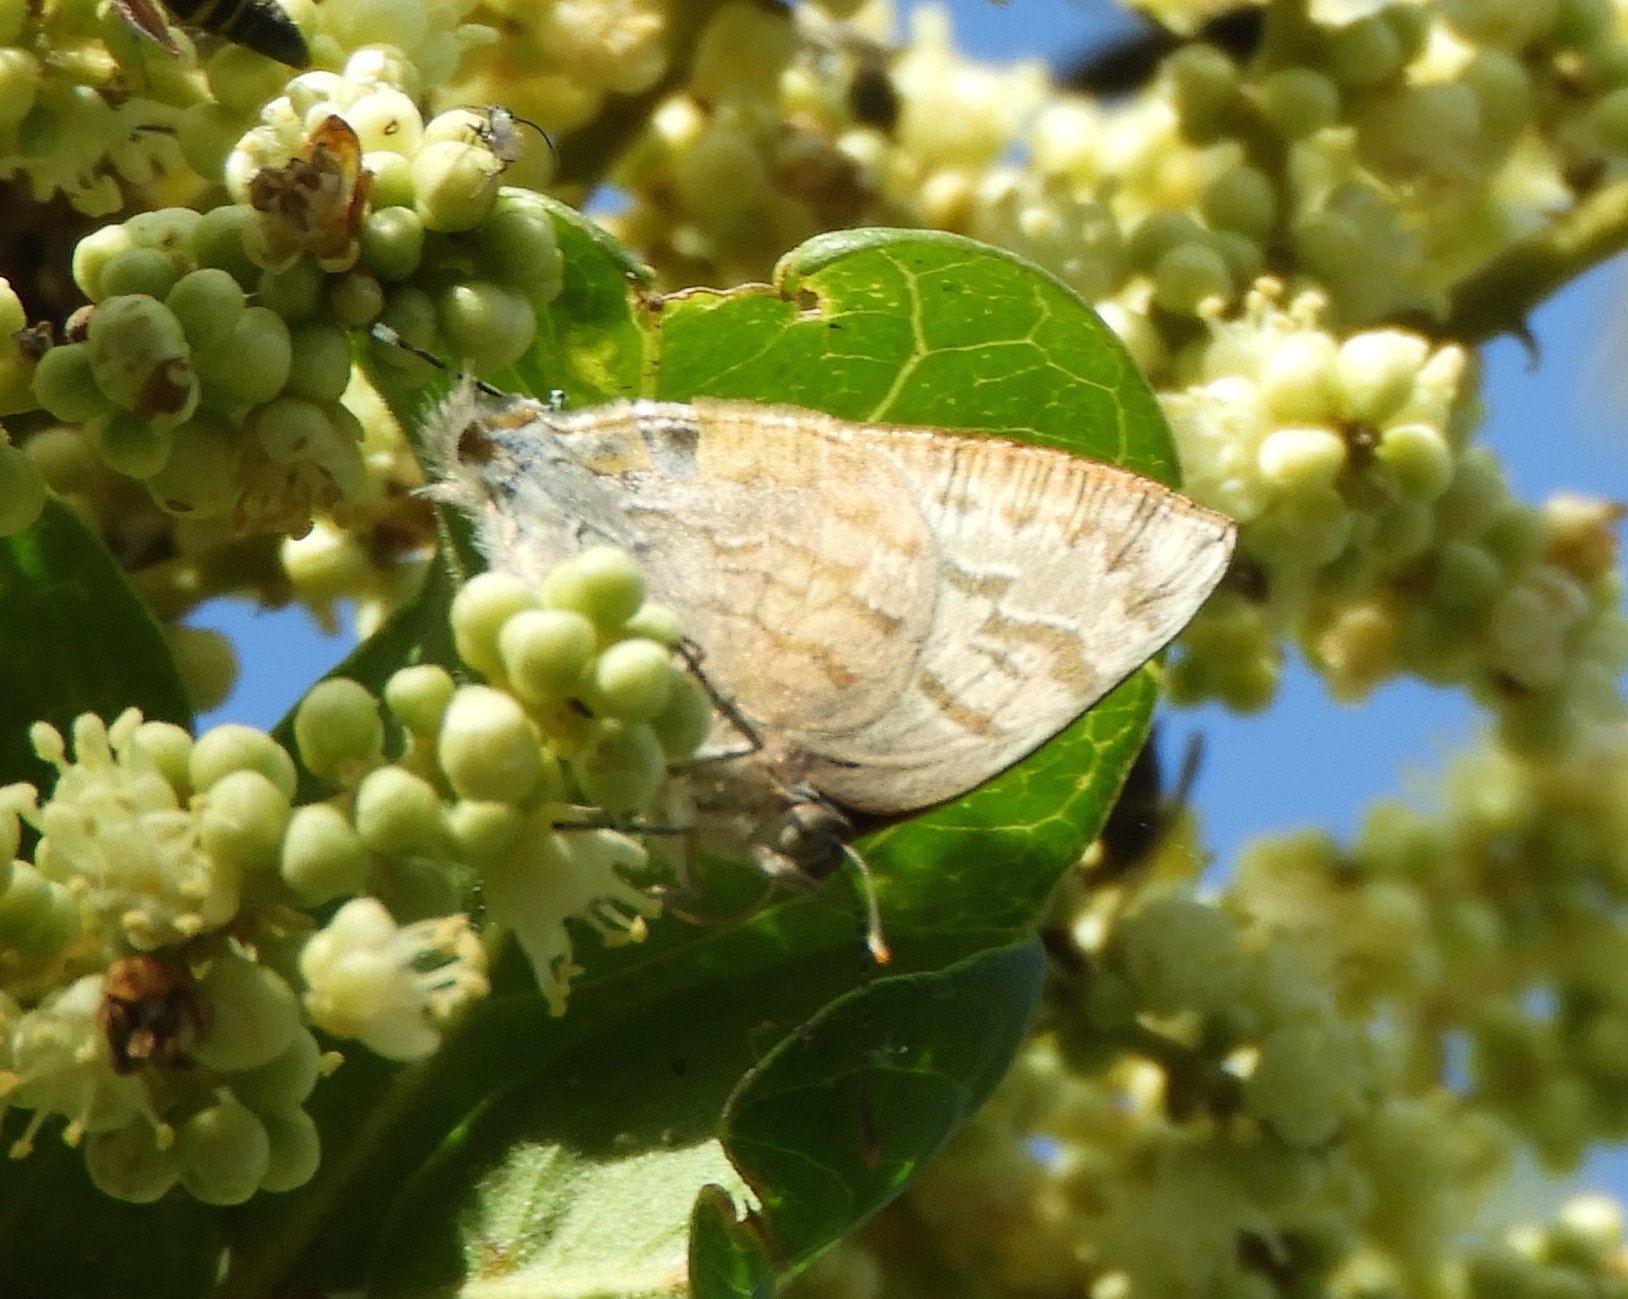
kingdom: Animalia
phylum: Arthropoda
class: Insecta
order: Lepidoptera
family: Lycaenidae
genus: Rekoa
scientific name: Rekoa palegon
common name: Gold-bordered hairstreak
